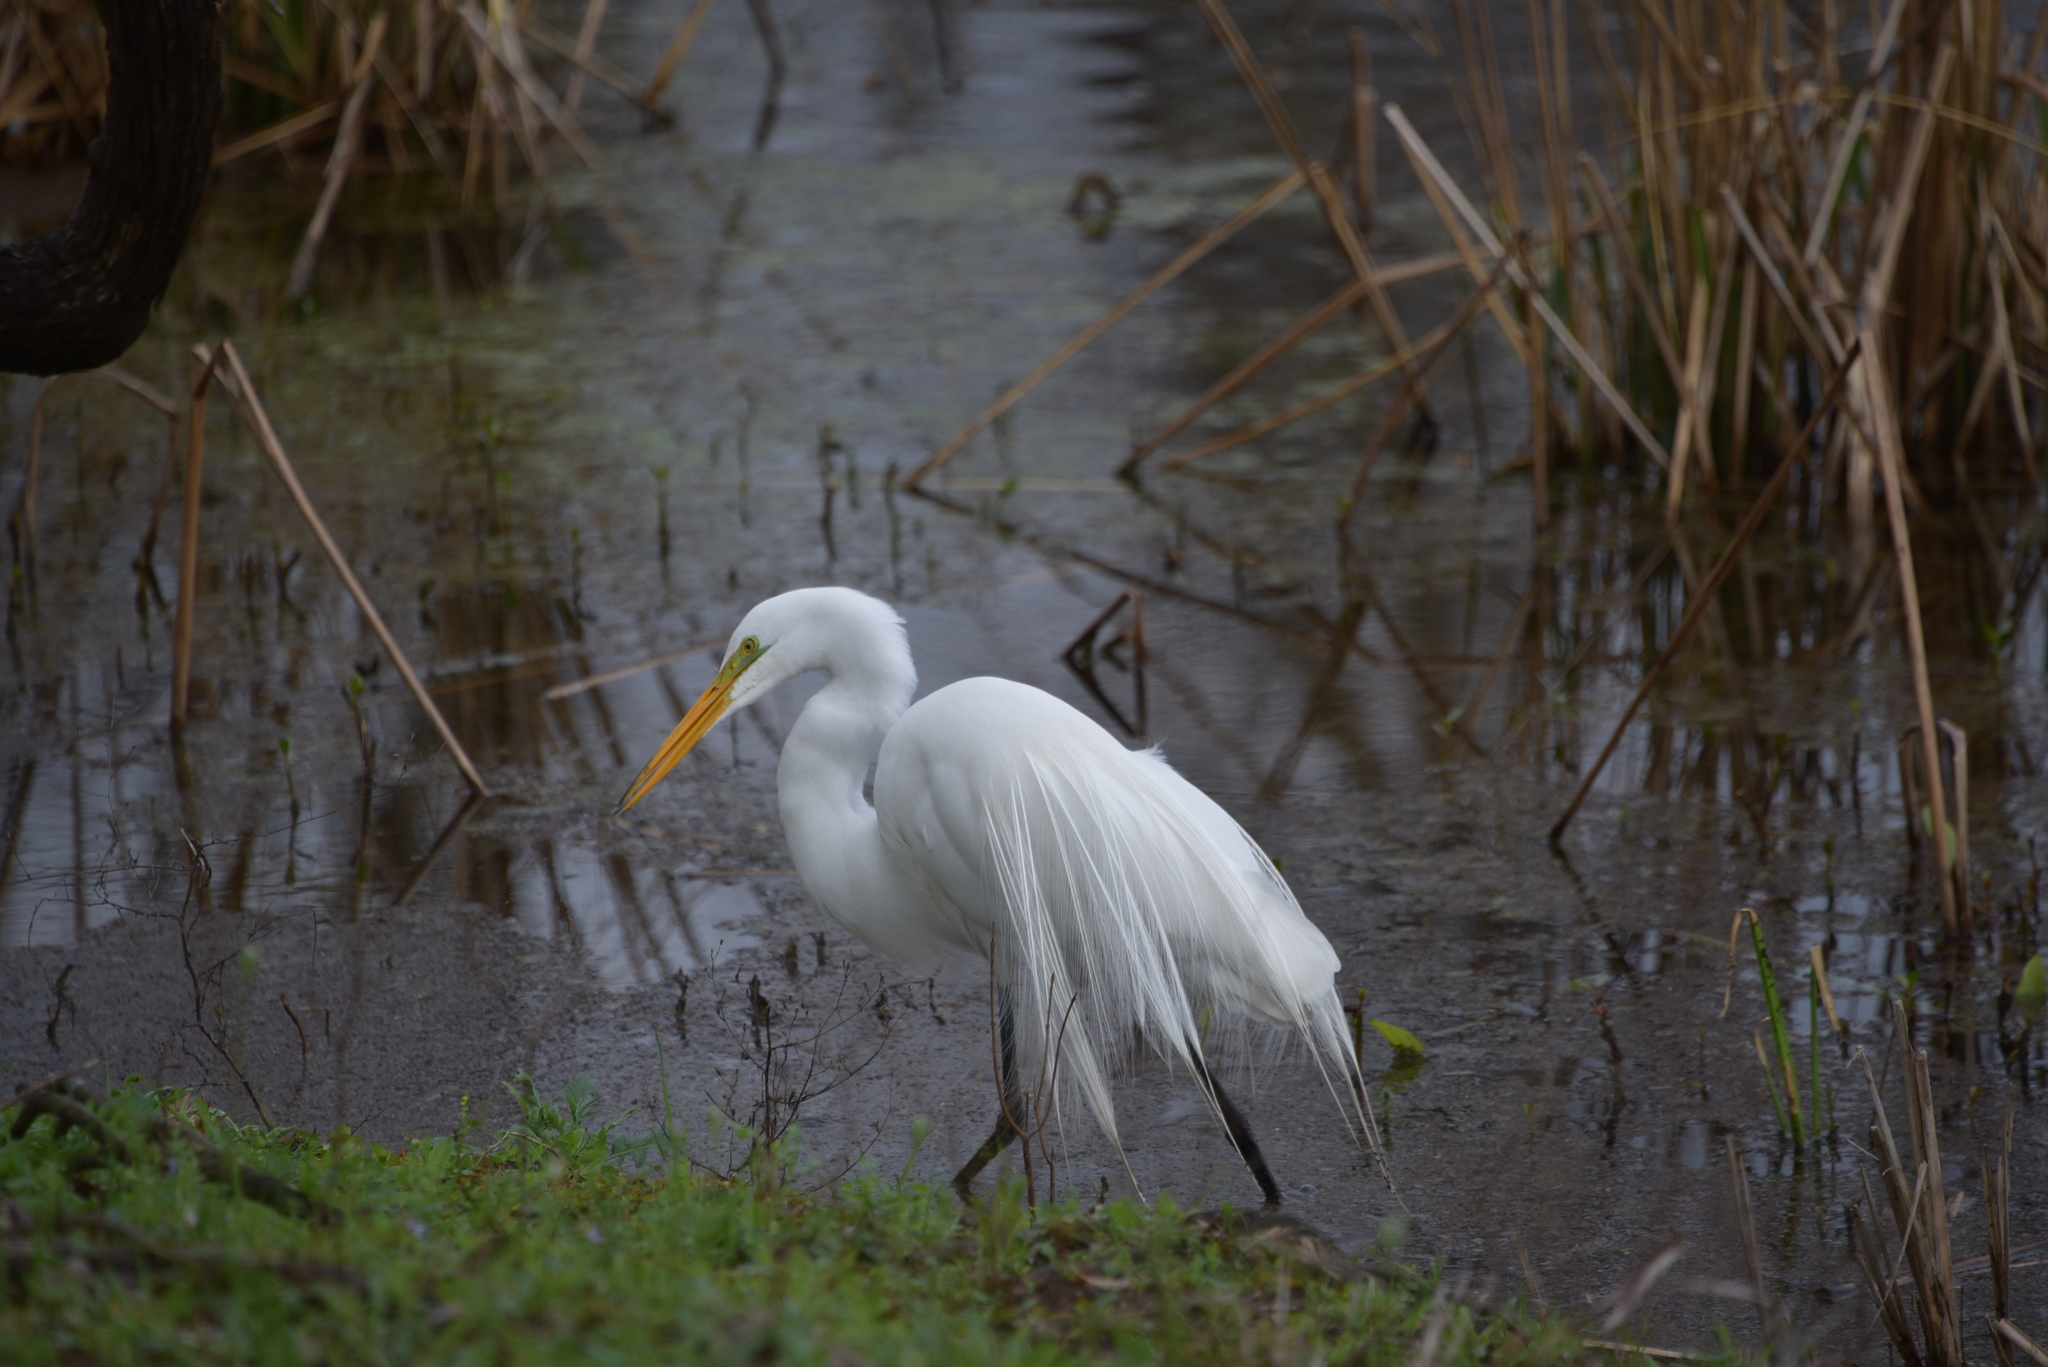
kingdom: Animalia
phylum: Chordata
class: Aves
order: Pelecaniformes
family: Ardeidae
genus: Ardea
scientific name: Ardea alba
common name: Great egret
